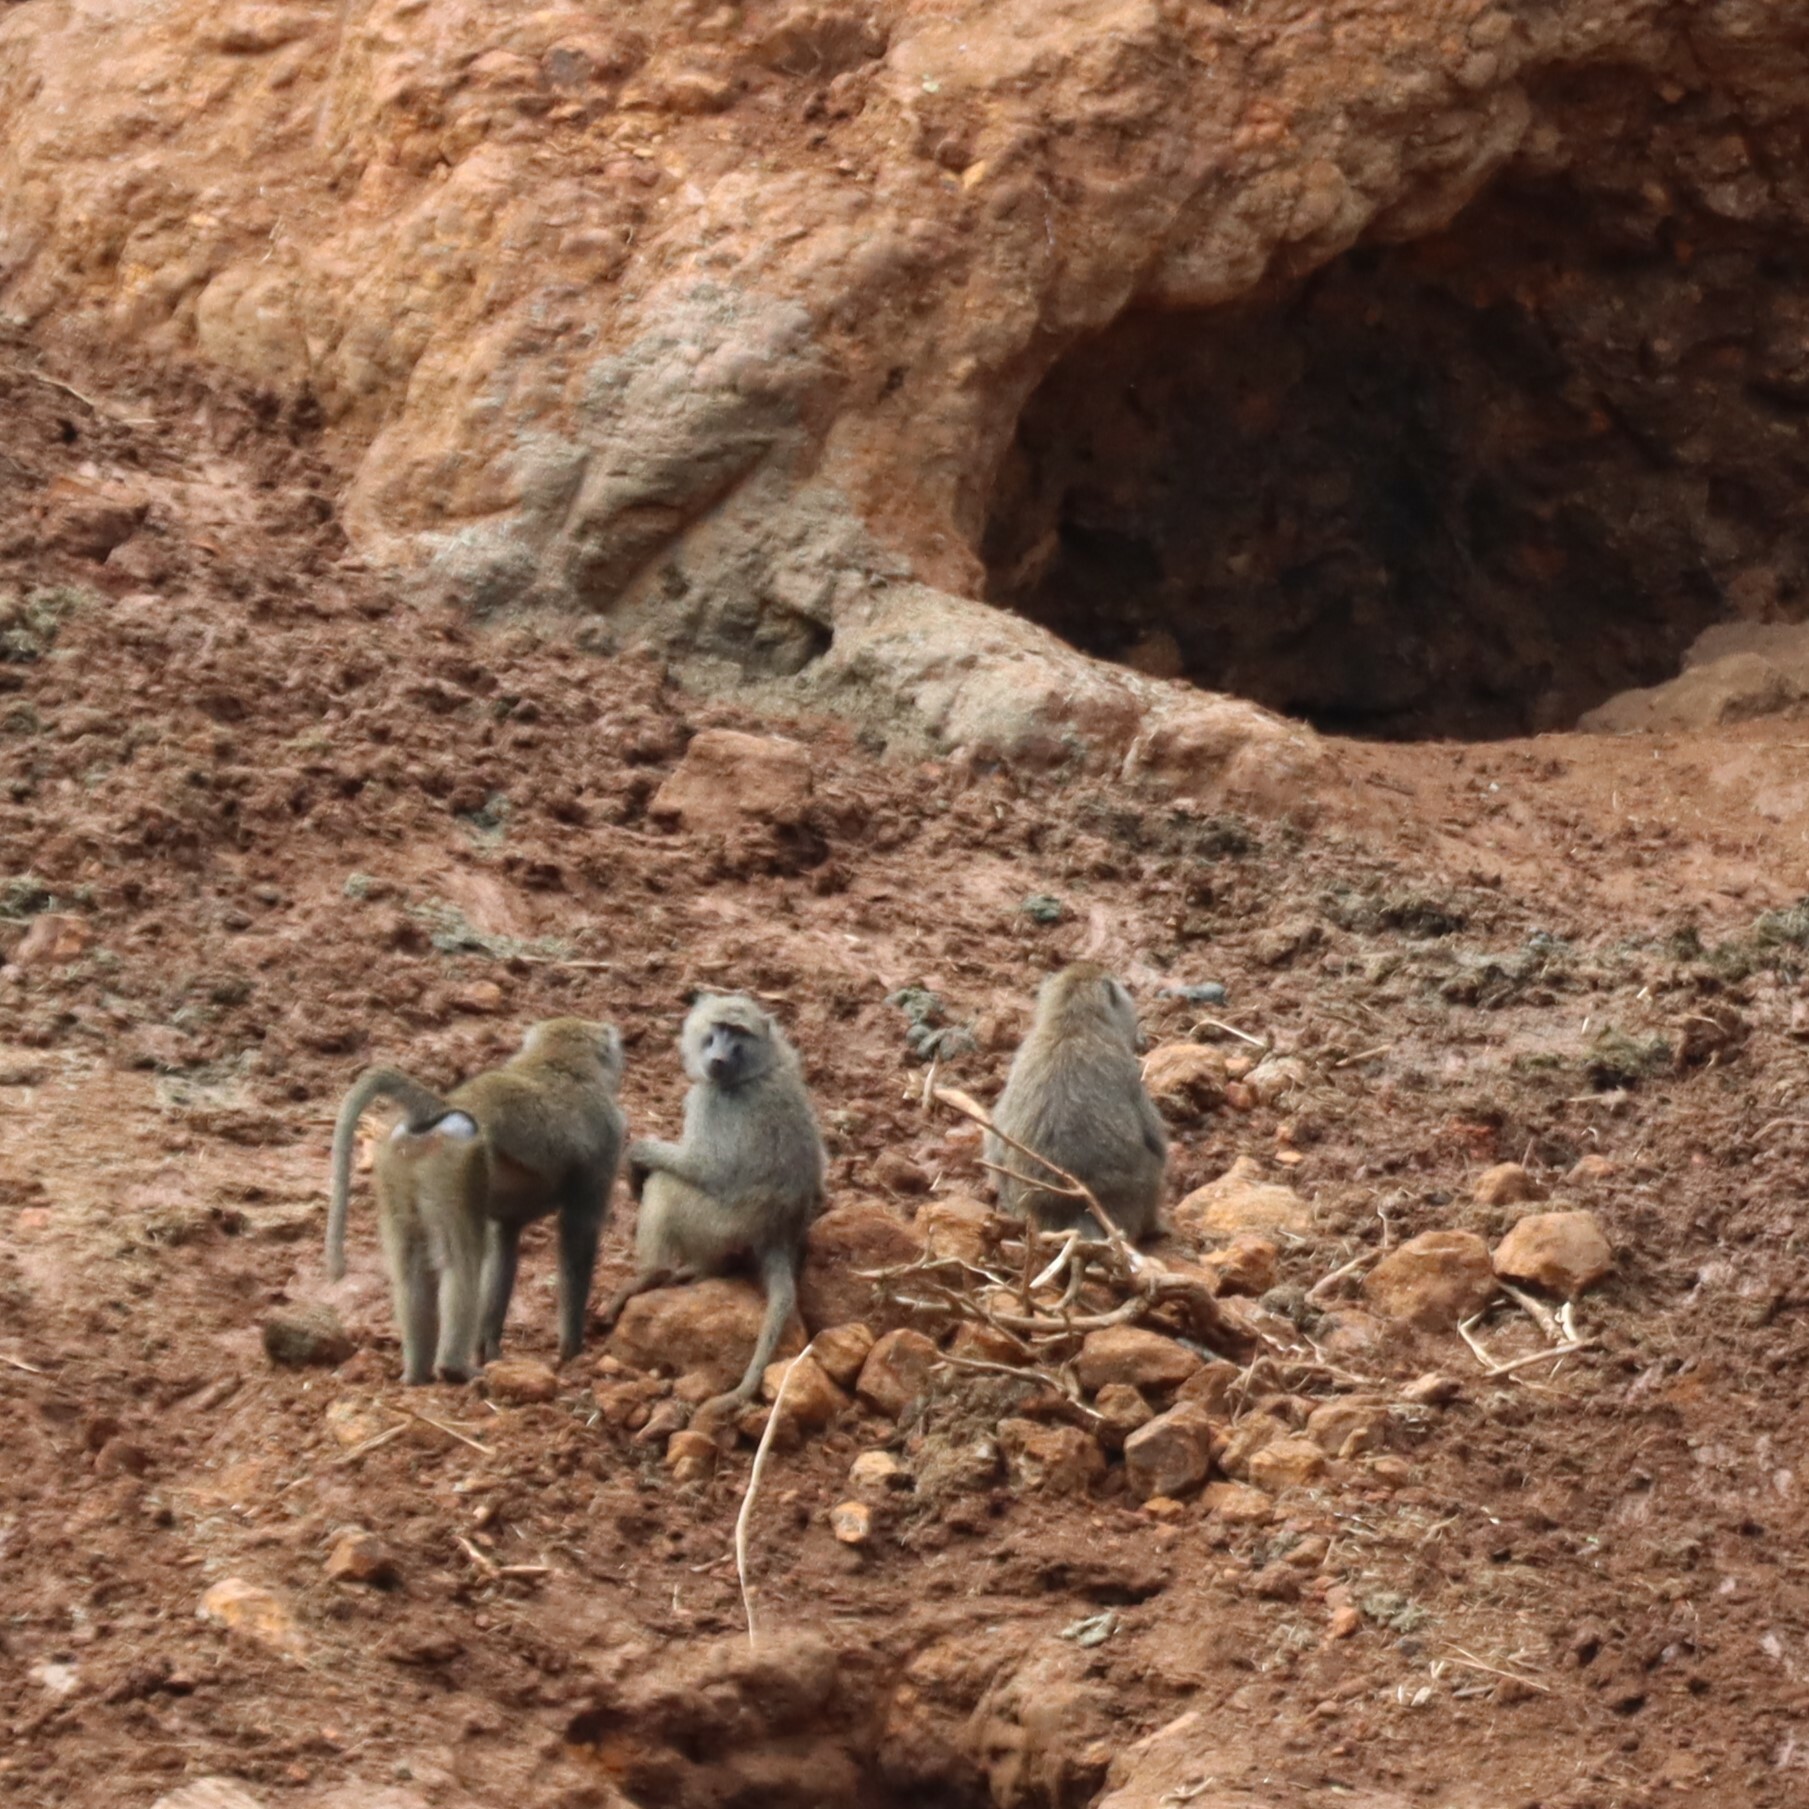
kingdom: Animalia
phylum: Chordata
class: Mammalia
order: Primates
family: Cercopithecidae
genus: Papio
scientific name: Papio anubis
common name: Olive baboon
